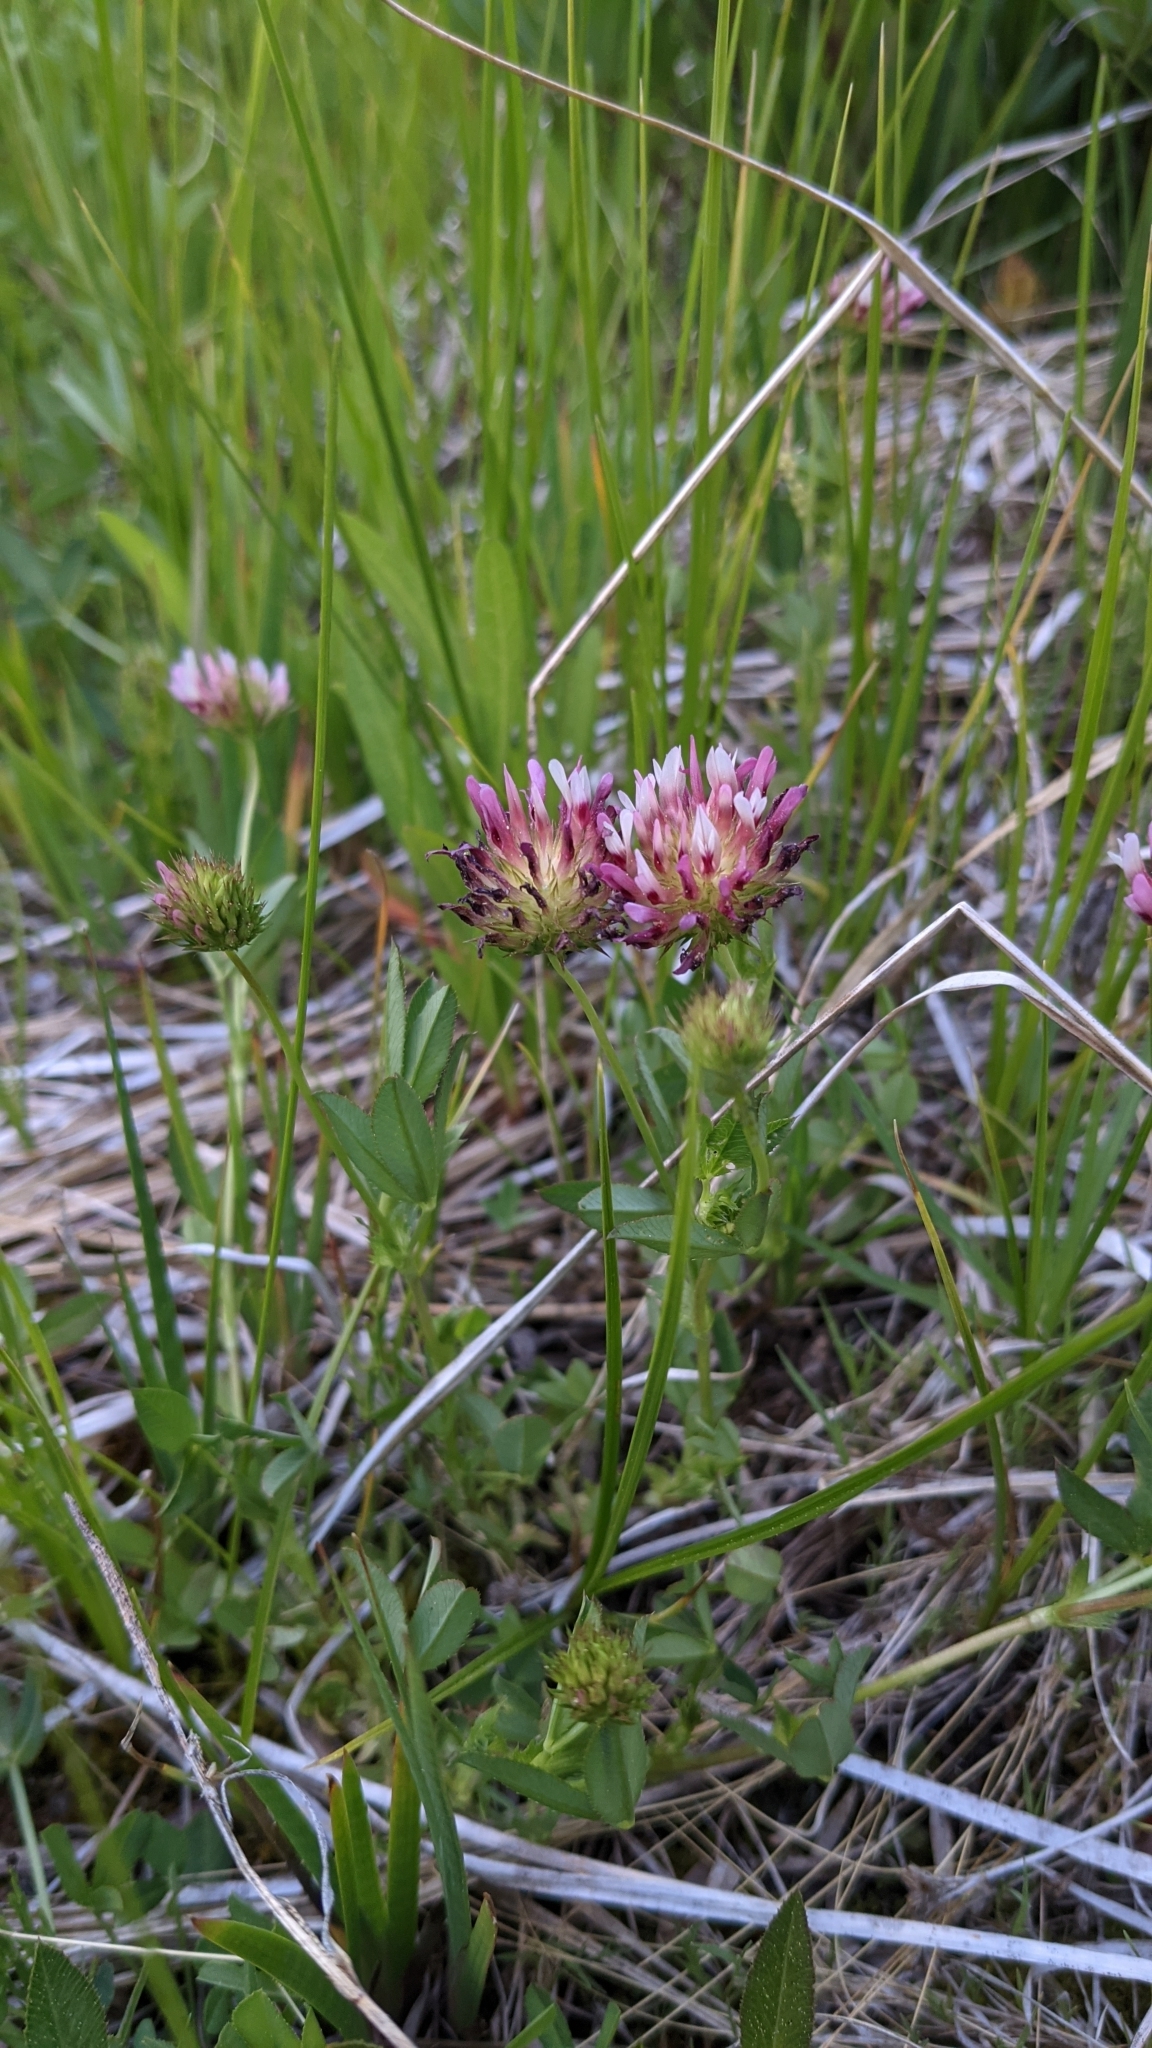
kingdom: Plantae
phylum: Tracheophyta
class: Magnoliopsida
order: Fabales
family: Fabaceae
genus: Trifolium
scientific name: Trifolium wormskioldii
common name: Springbank clover
